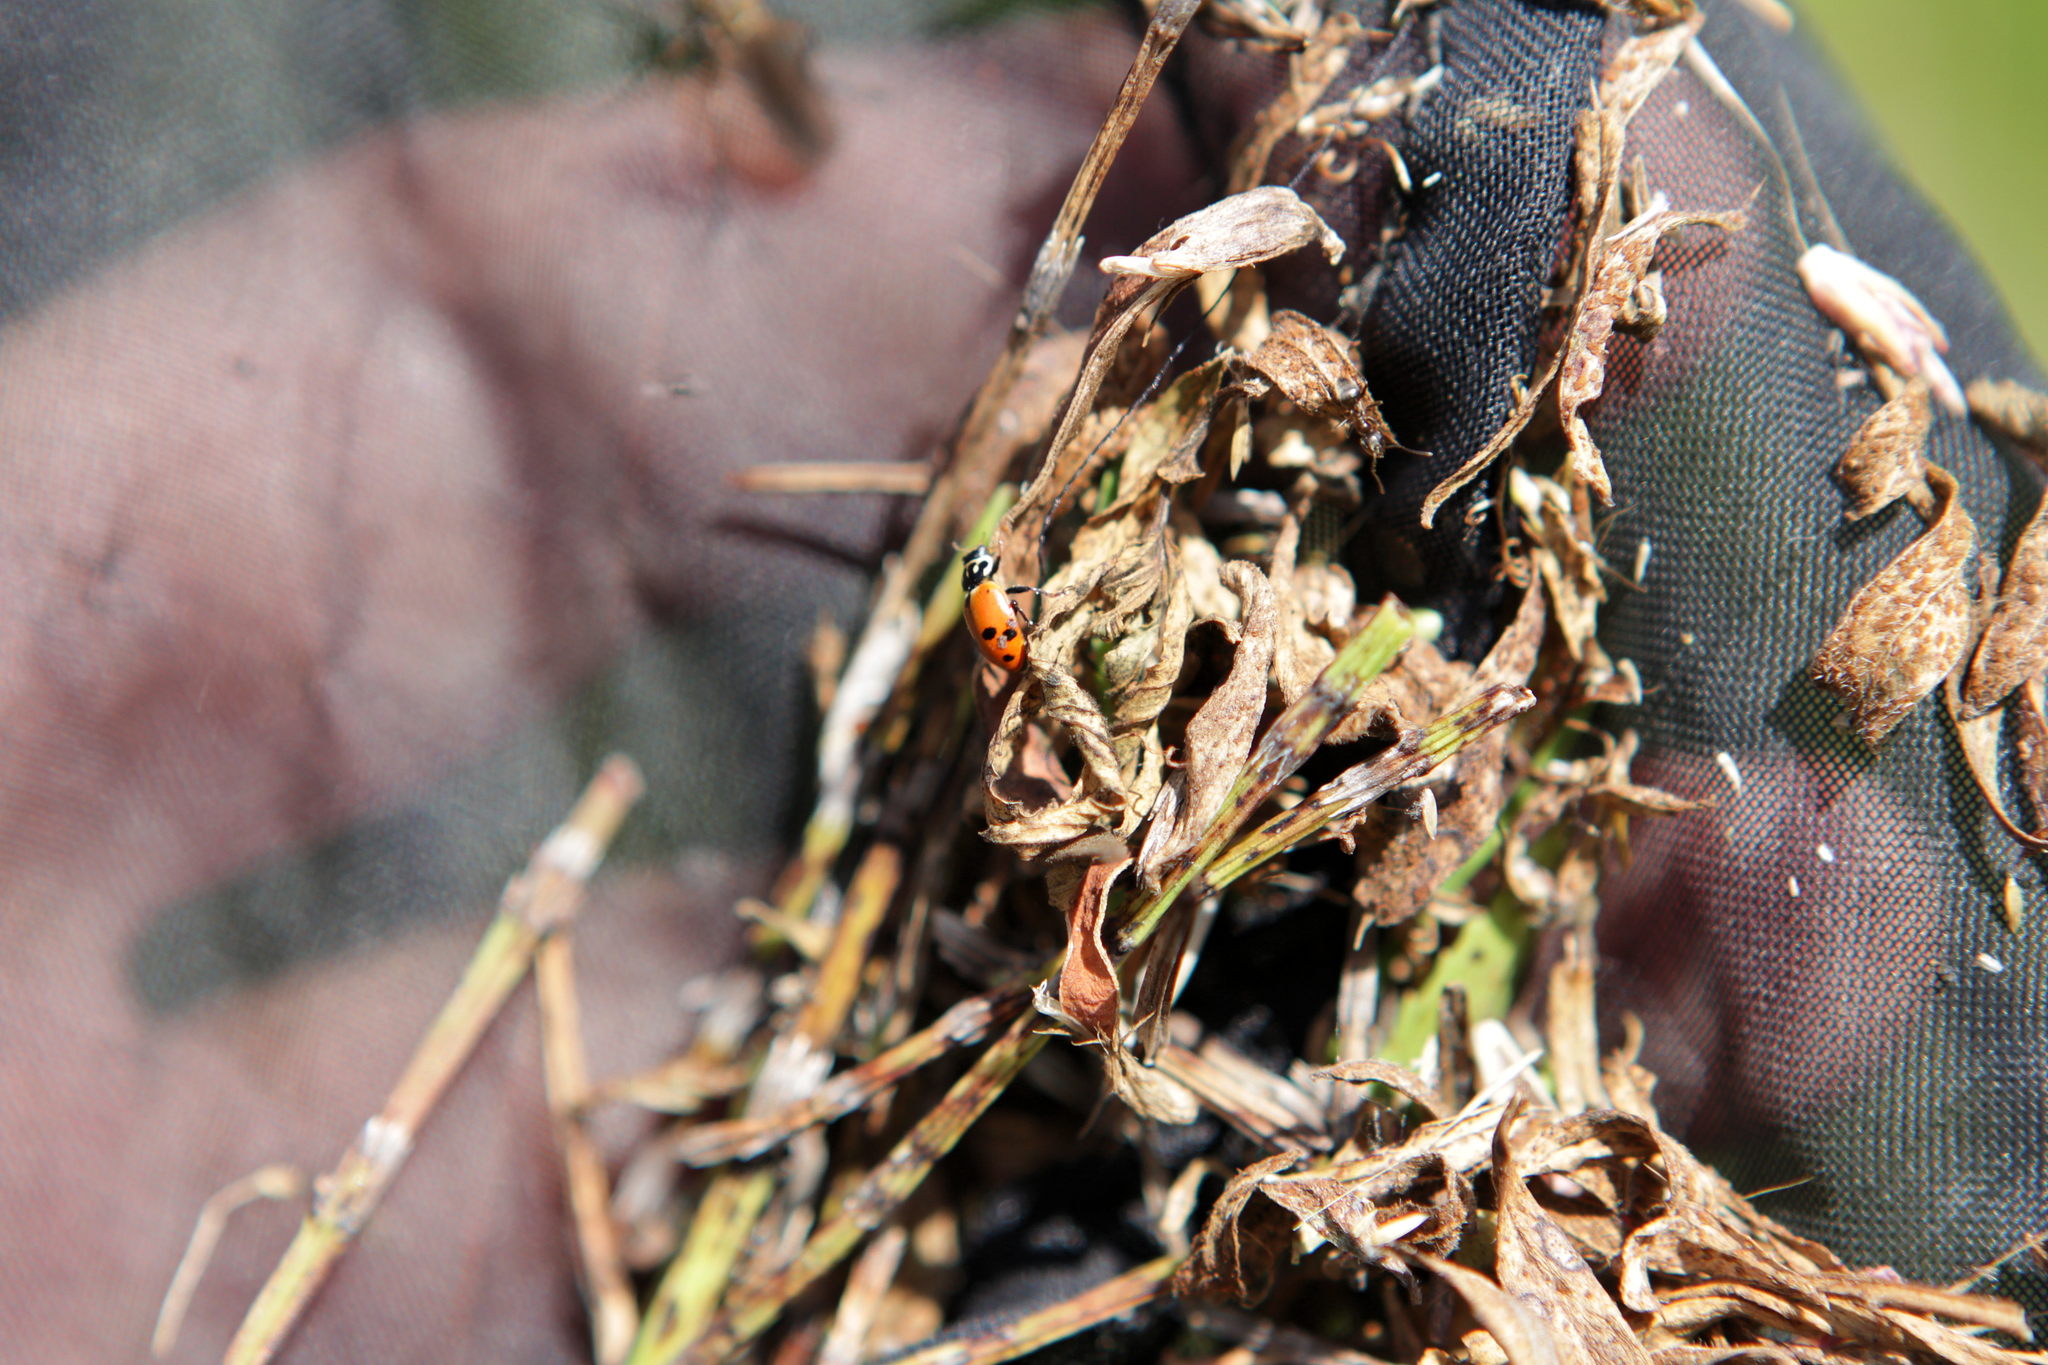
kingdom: Animalia
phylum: Arthropoda
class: Insecta
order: Coleoptera
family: Coccinellidae
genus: Hippodamia
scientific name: Hippodamia variegata
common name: Ladybird beetle
